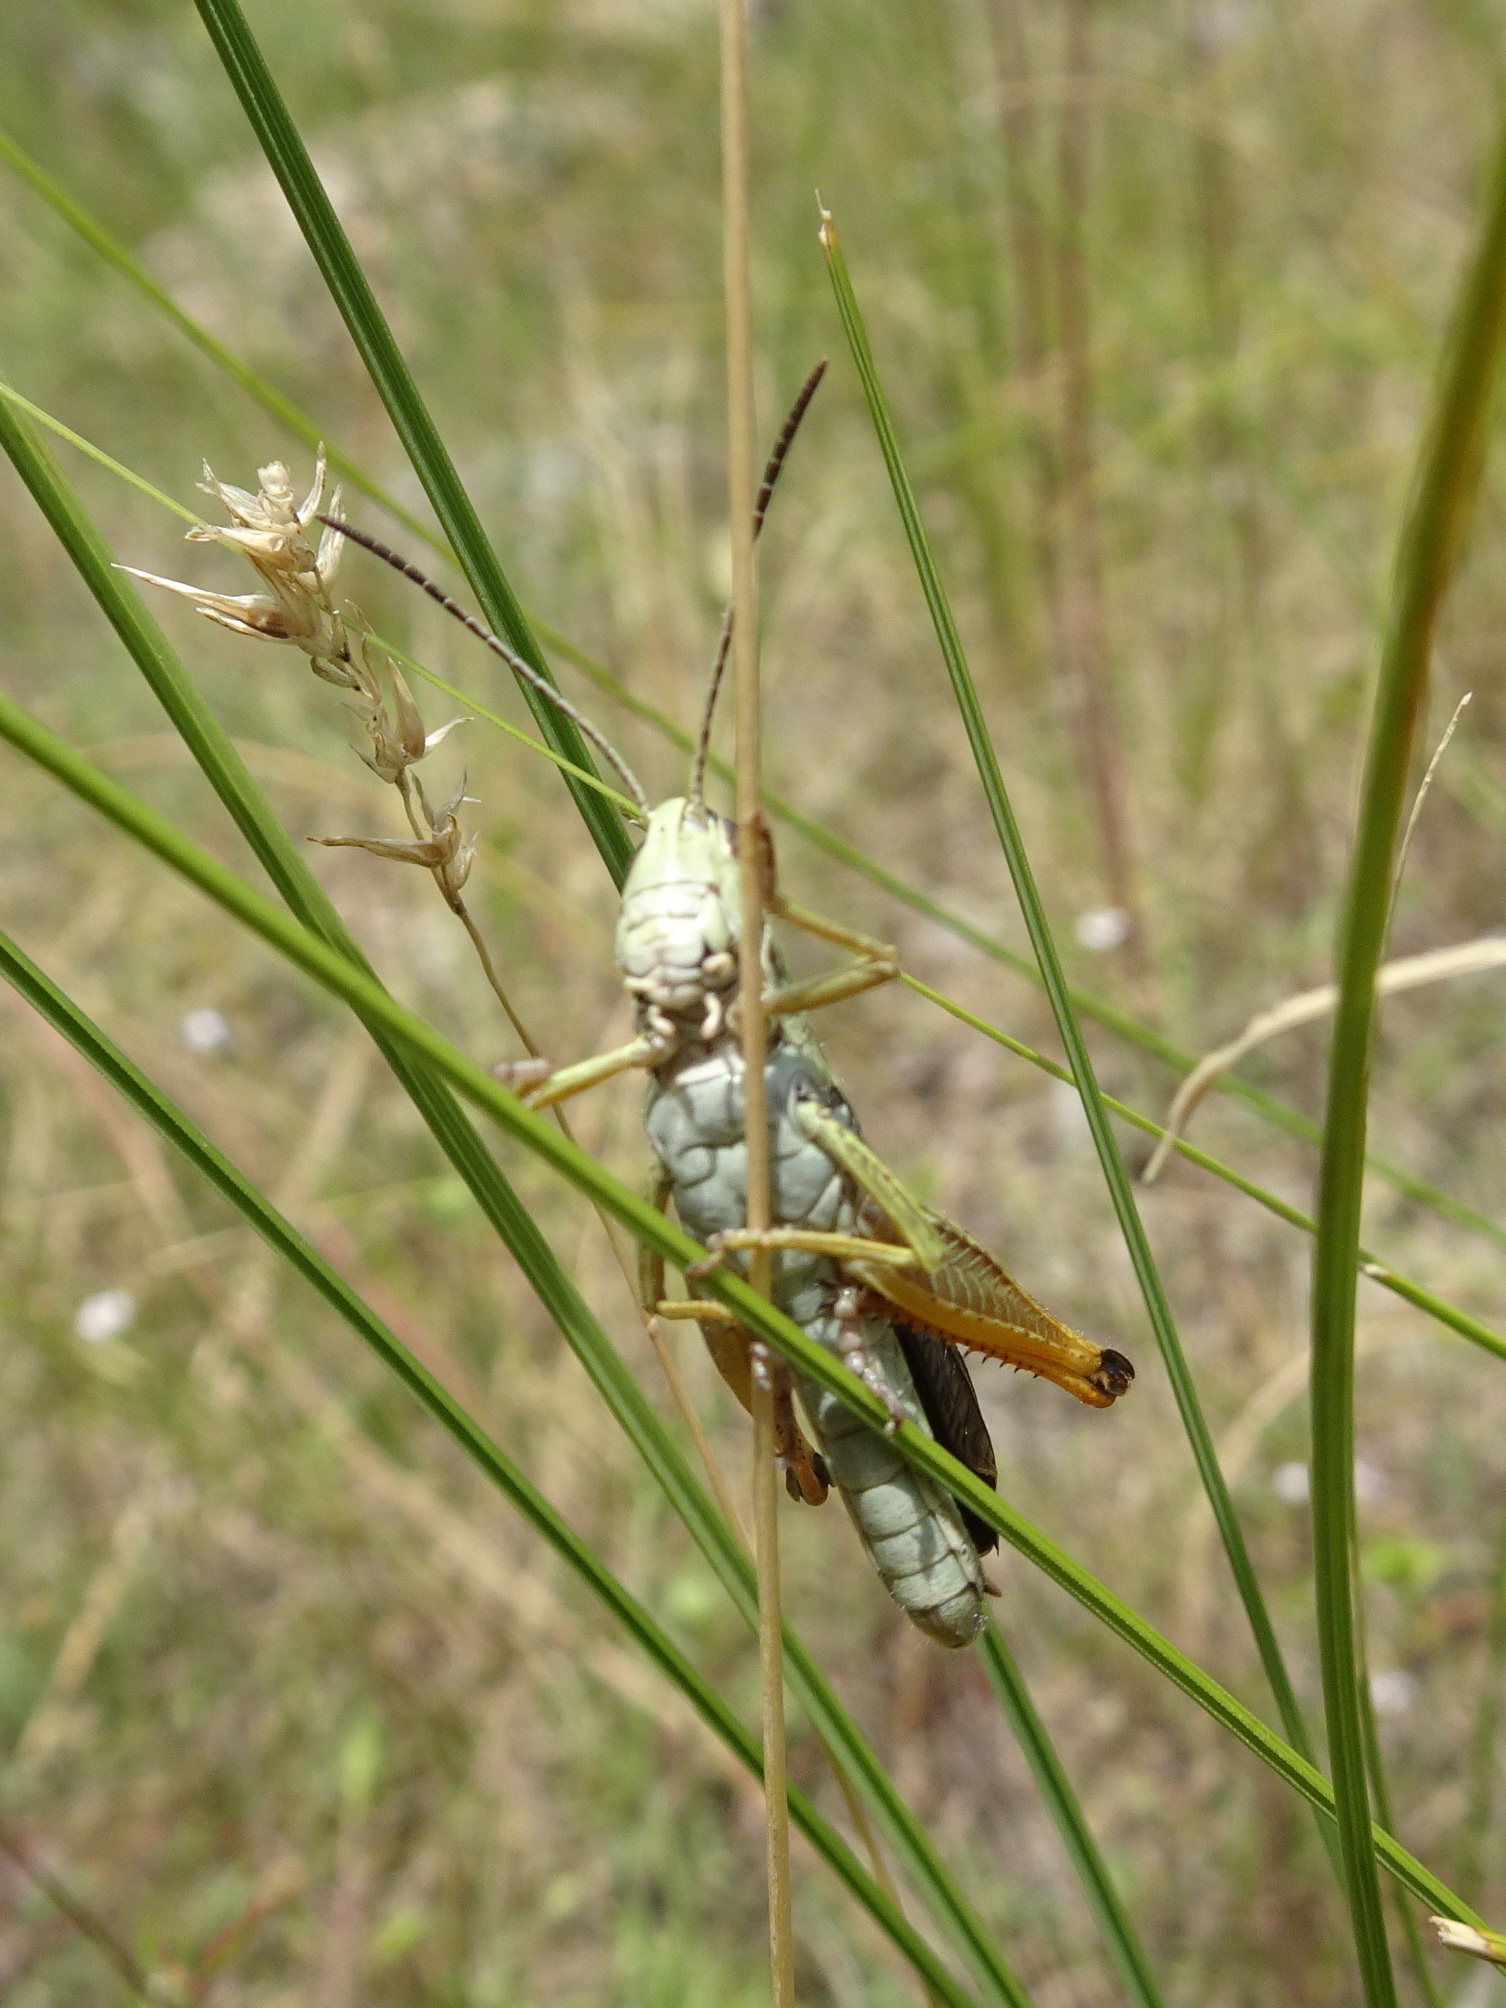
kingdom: Animalia
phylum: Arthropoda
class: Insecta
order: Orthoptera
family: Acrididae
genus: Stauroderus
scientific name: Stauroderus scalaris
